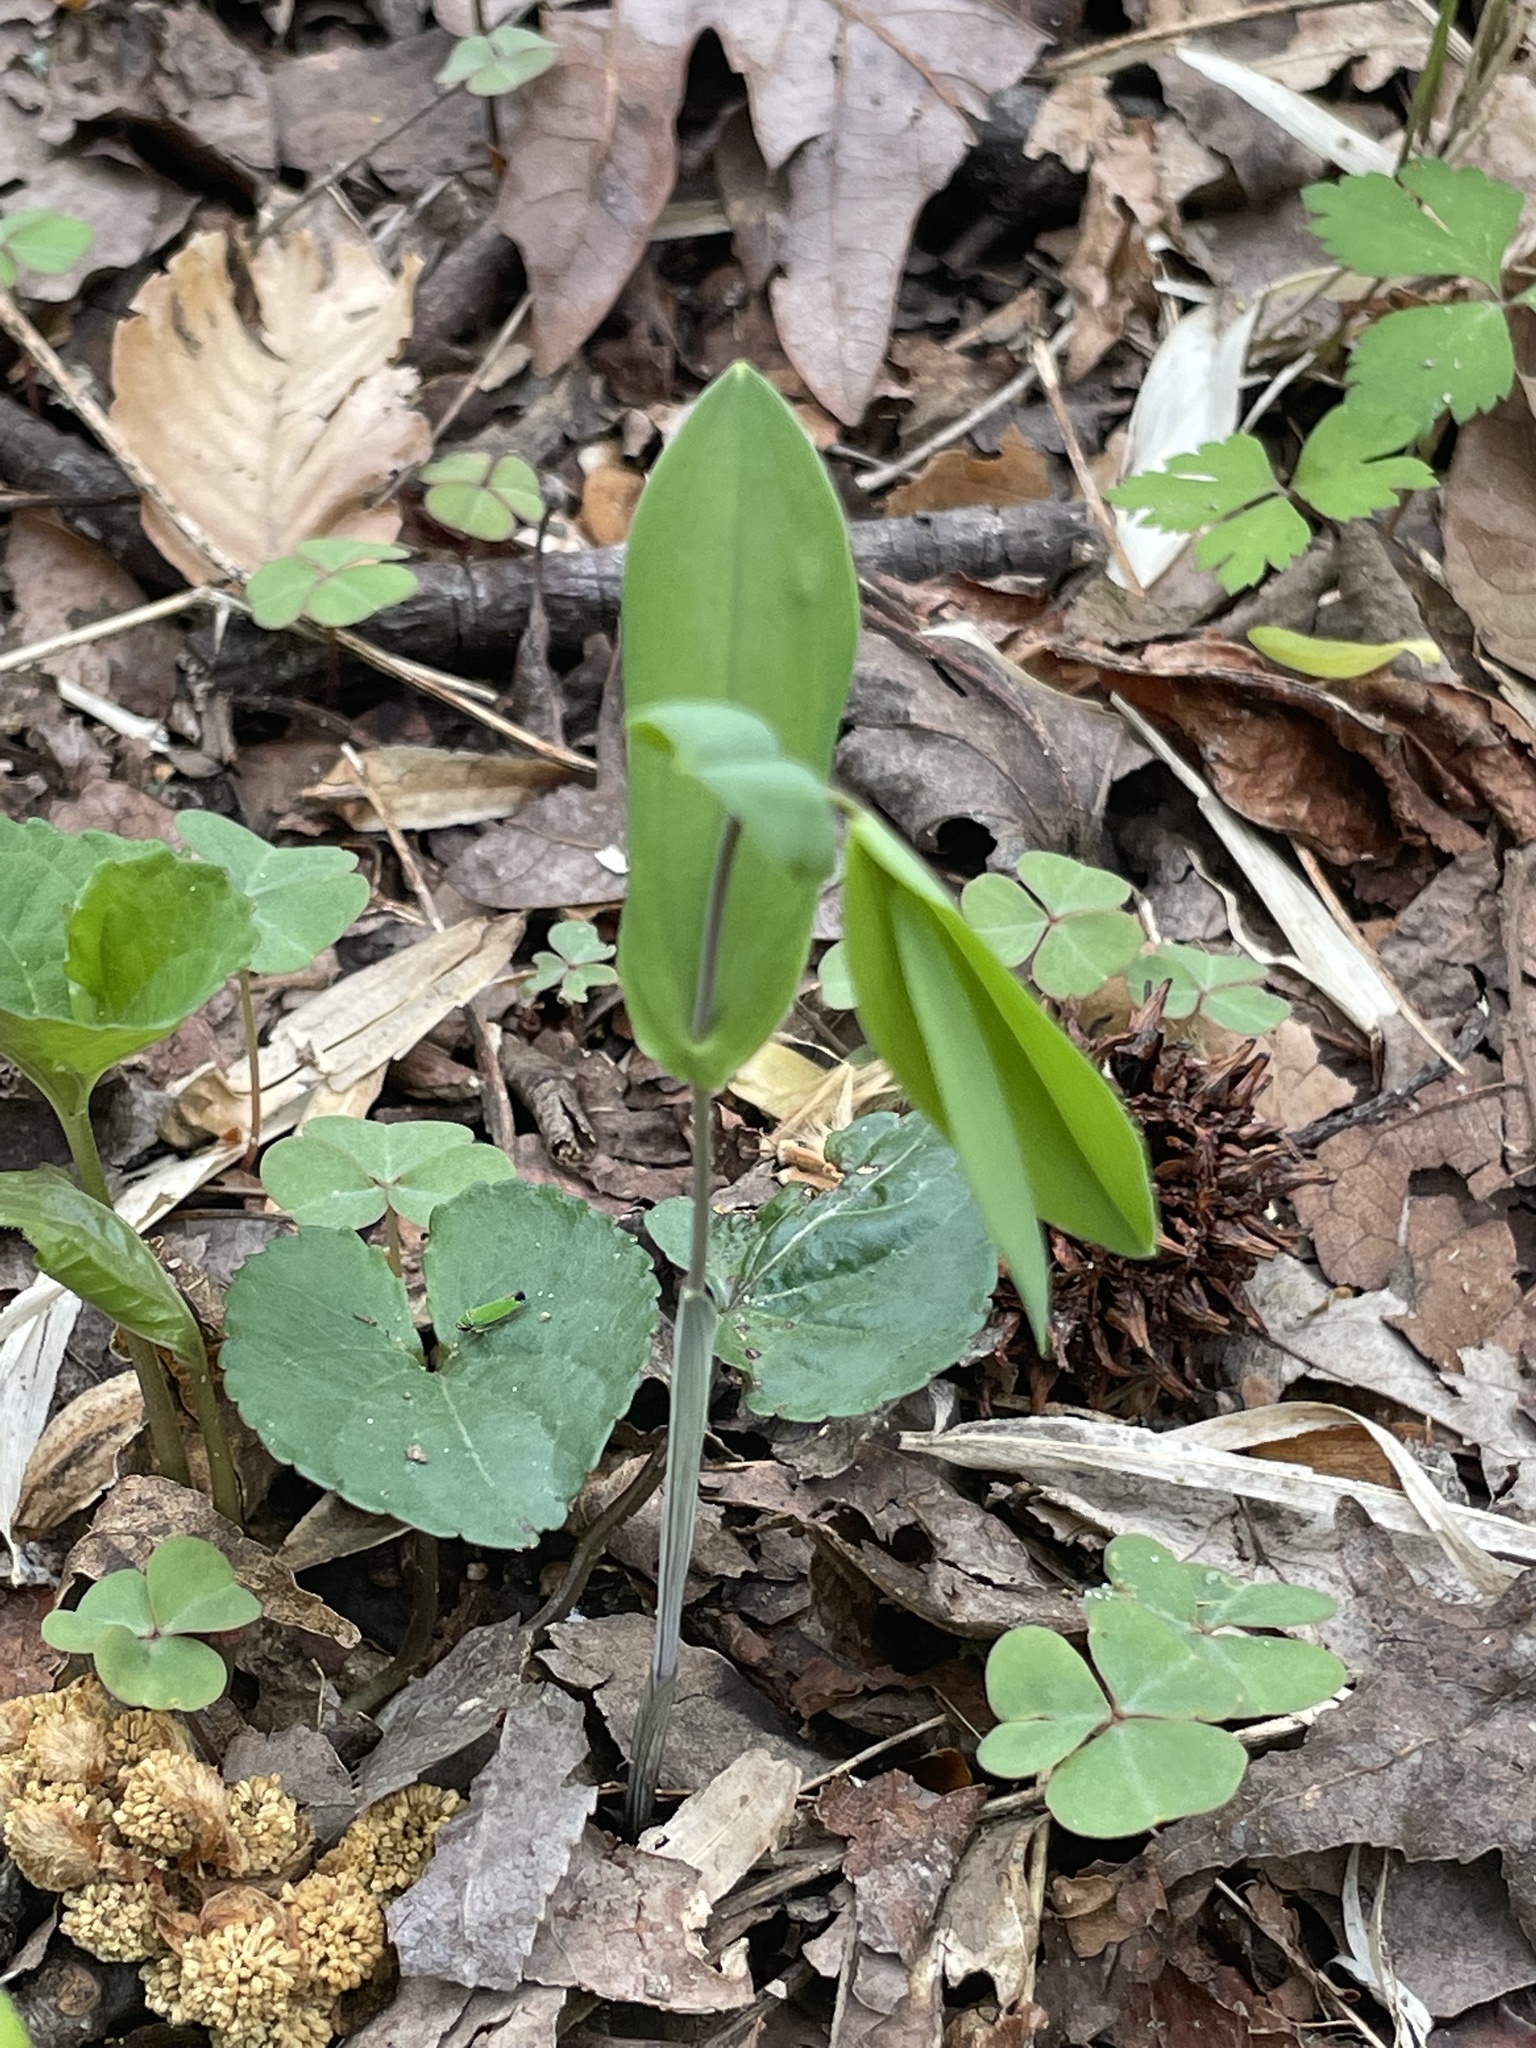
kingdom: Plantae
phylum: Tracheophyta
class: Liliopsida
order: Liliales
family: Colchicaceae
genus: Uvularia
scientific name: Uvularia perfoliata
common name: Perfoliate bellwort
